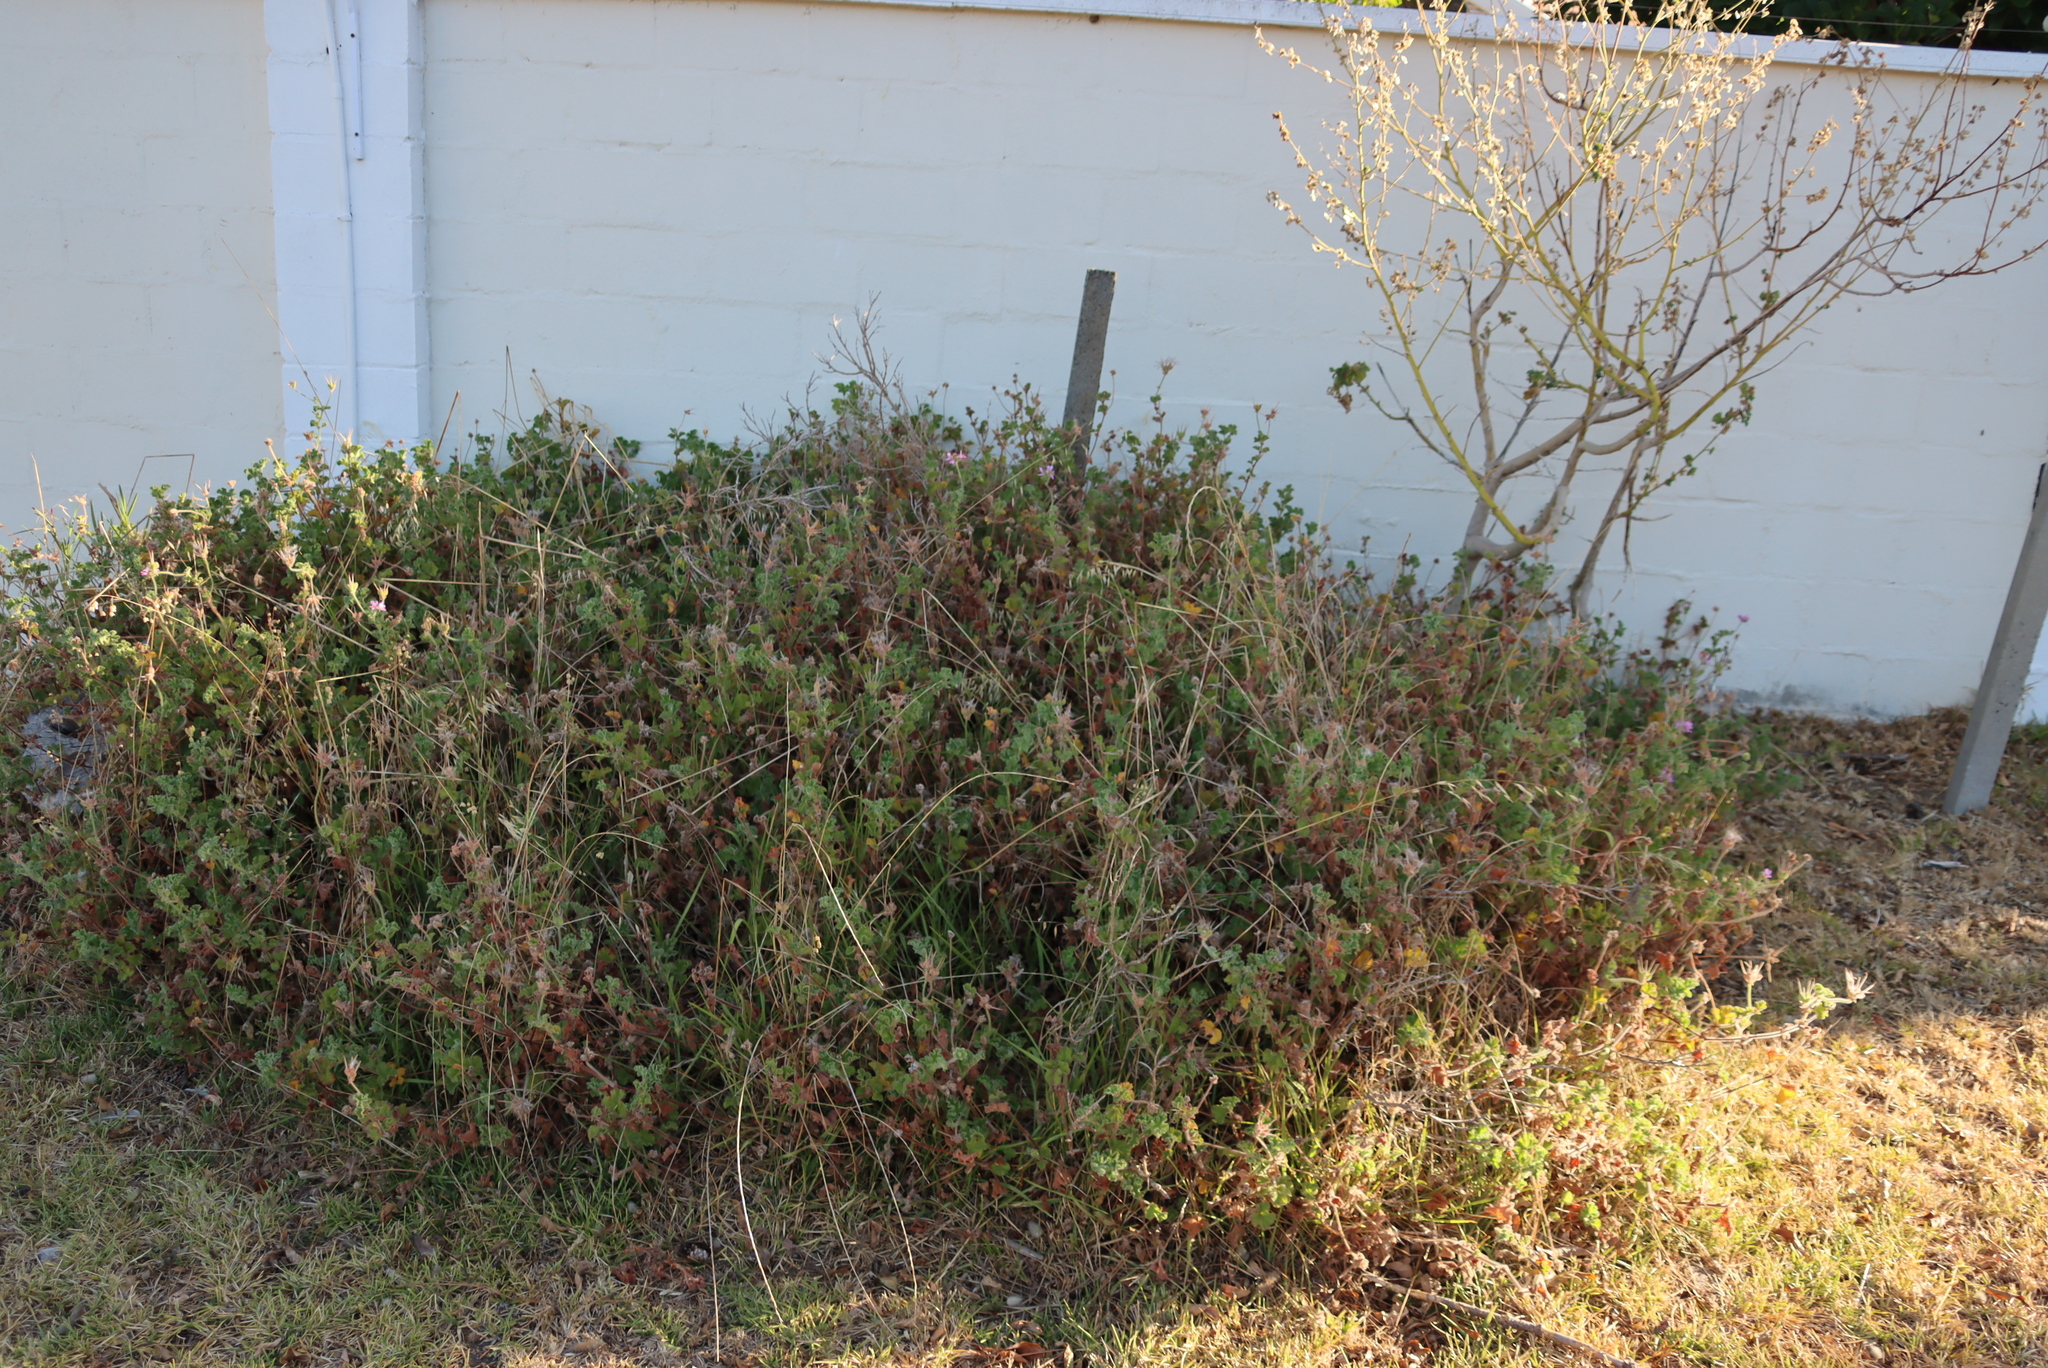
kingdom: Plantae
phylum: Tracheophyta
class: Magnoliopsida
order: Geraniales
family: Geraniaceae
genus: Pelargonium
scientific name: Pelargonium capitatum
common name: Rose scented geranium
